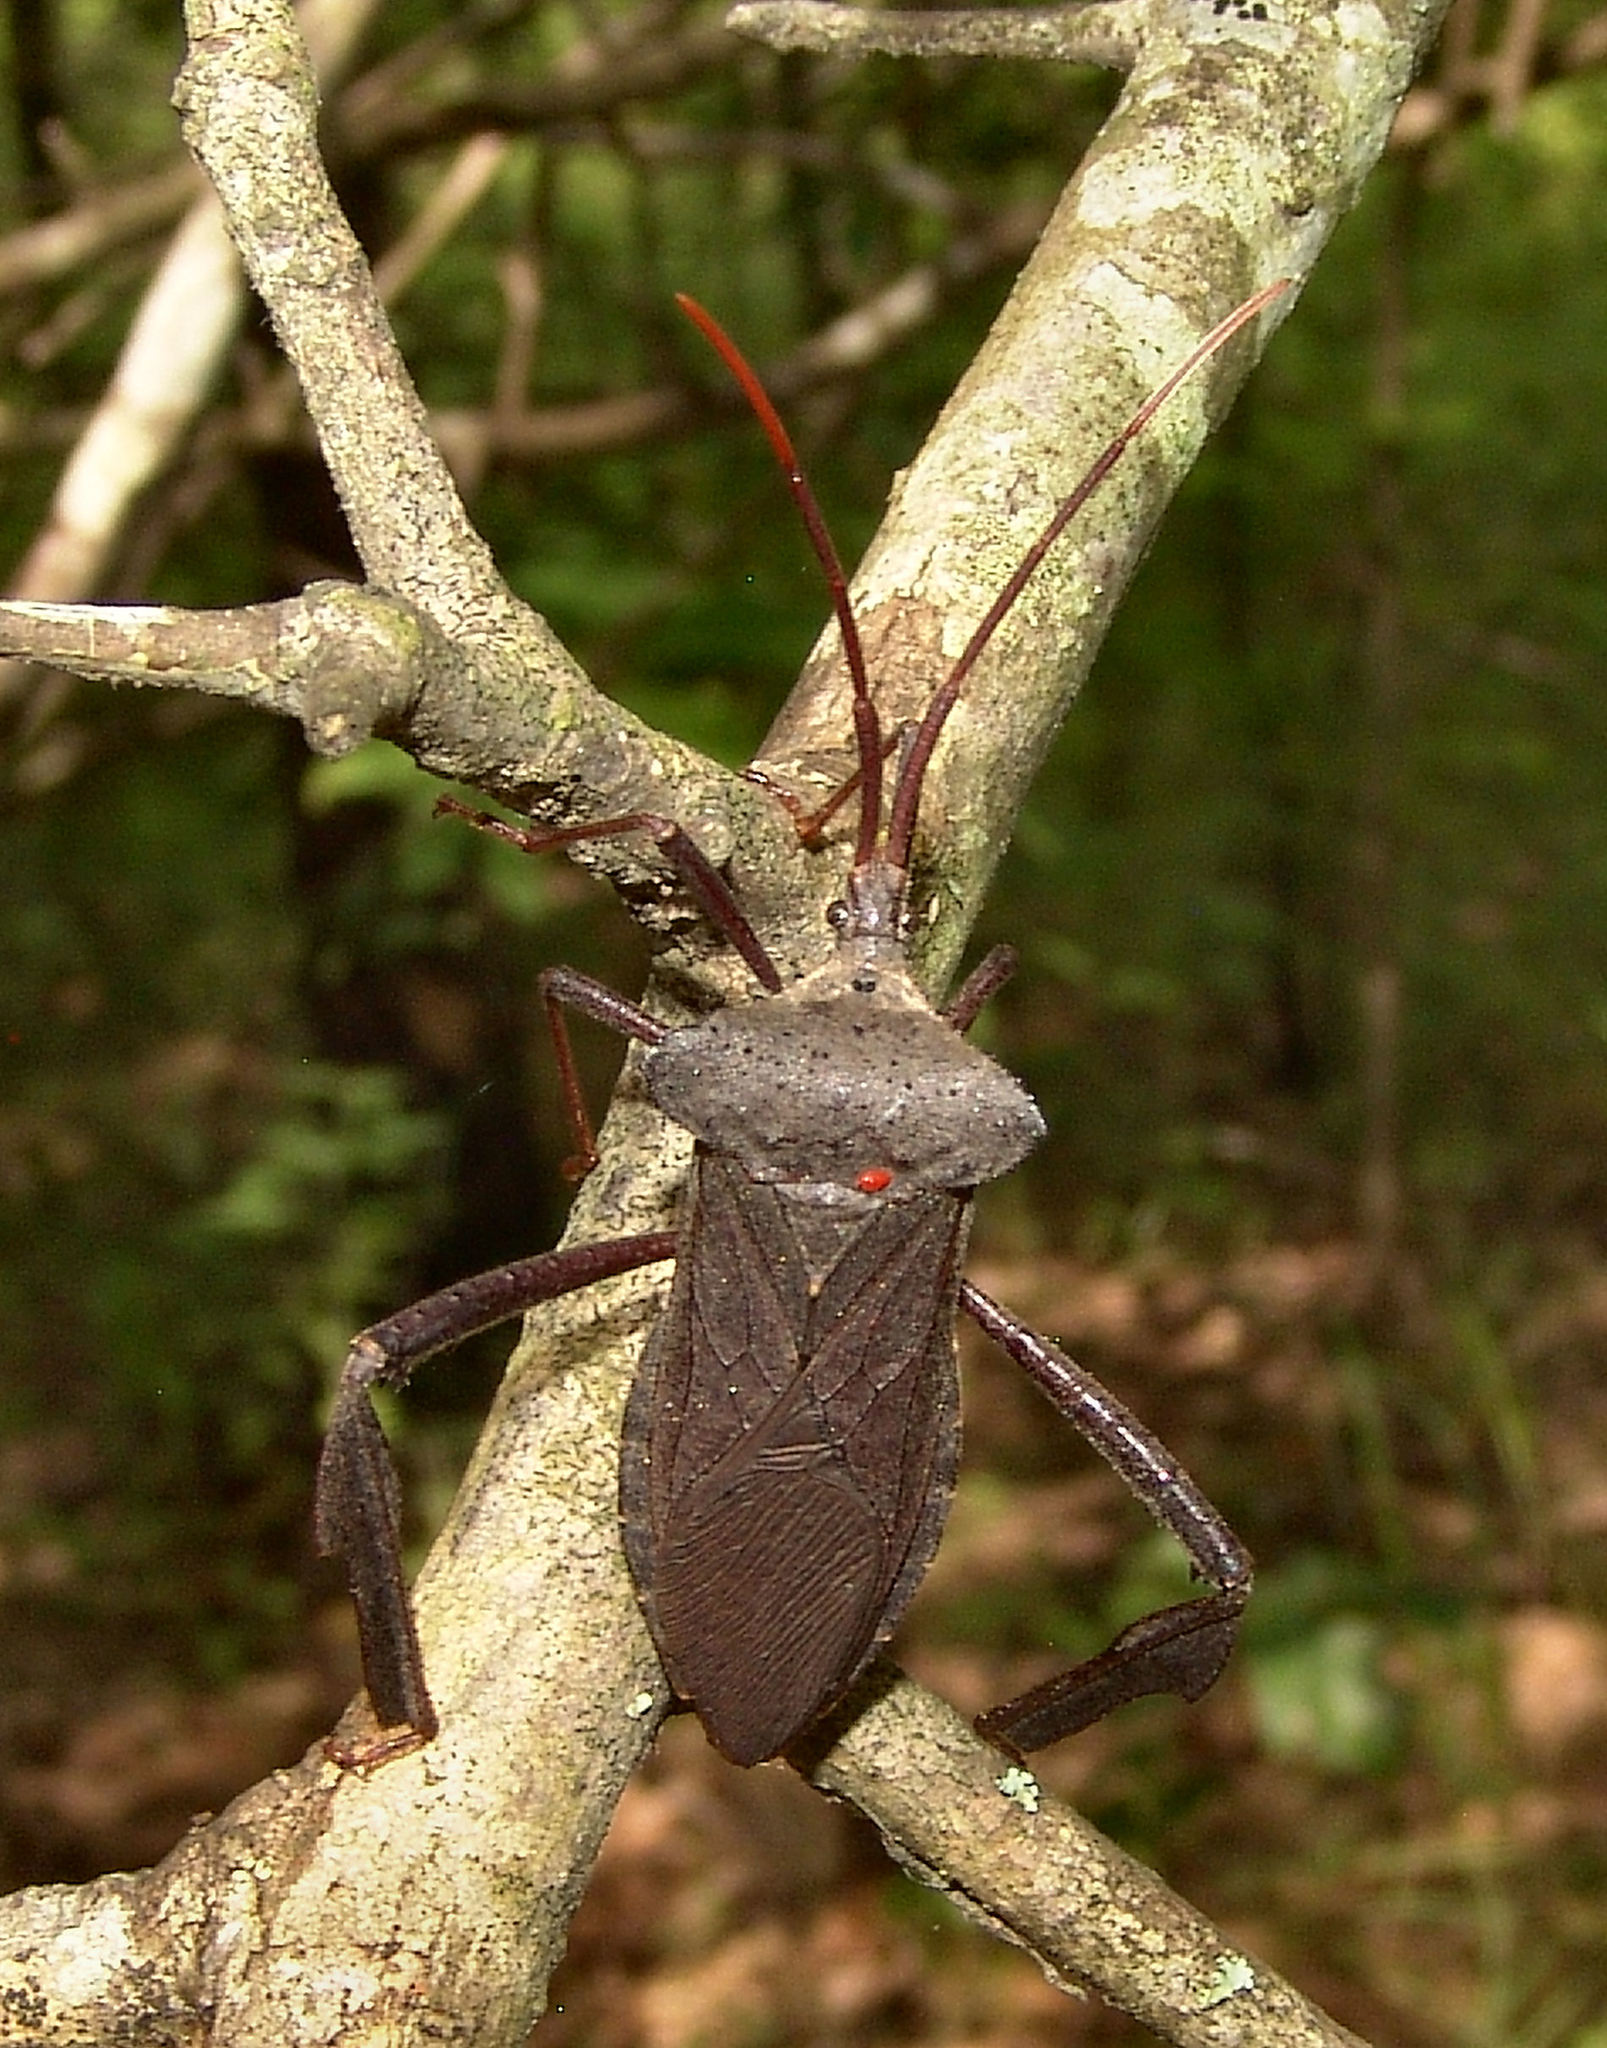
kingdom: Animalia
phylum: Arthropoda
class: Insecta
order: Hemiptera
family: Coreidae
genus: Acanthocephala
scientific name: Acanthocephala declivis
